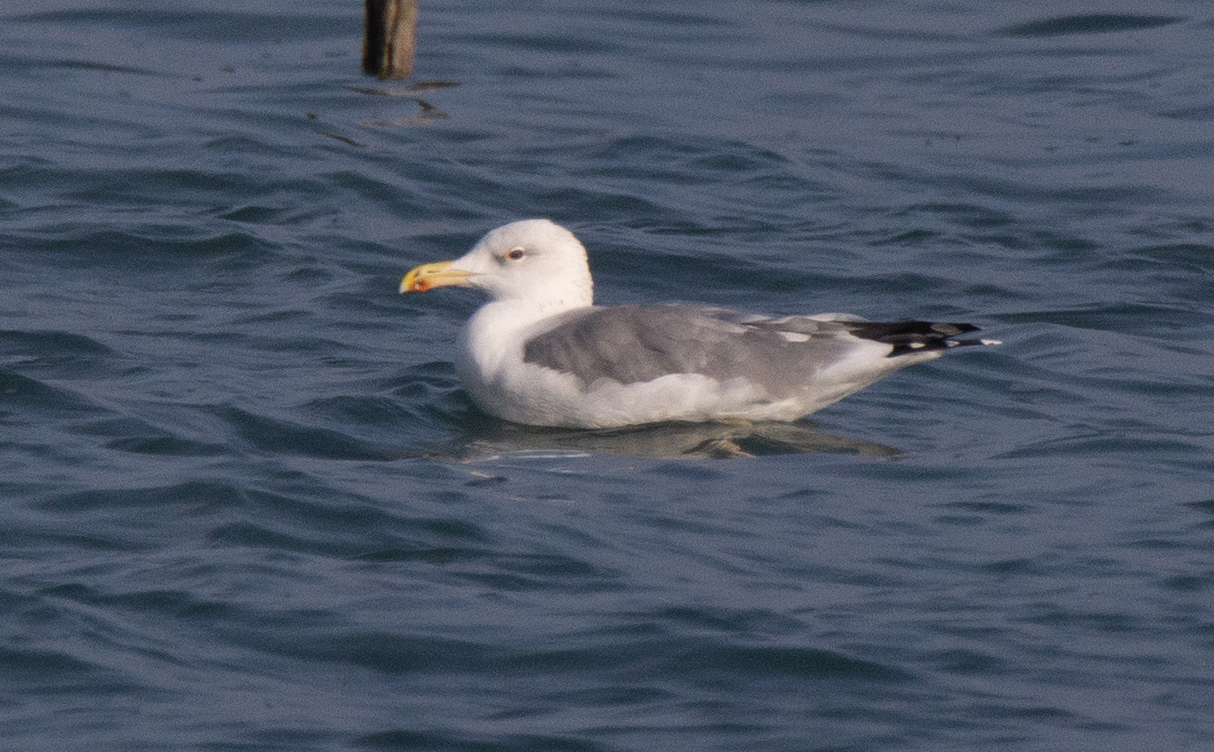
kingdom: Animalia
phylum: Chordata
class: Aves
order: Charadriiformes
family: Laridae
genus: Larus
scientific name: Larus cachinnans
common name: Caspian gull
